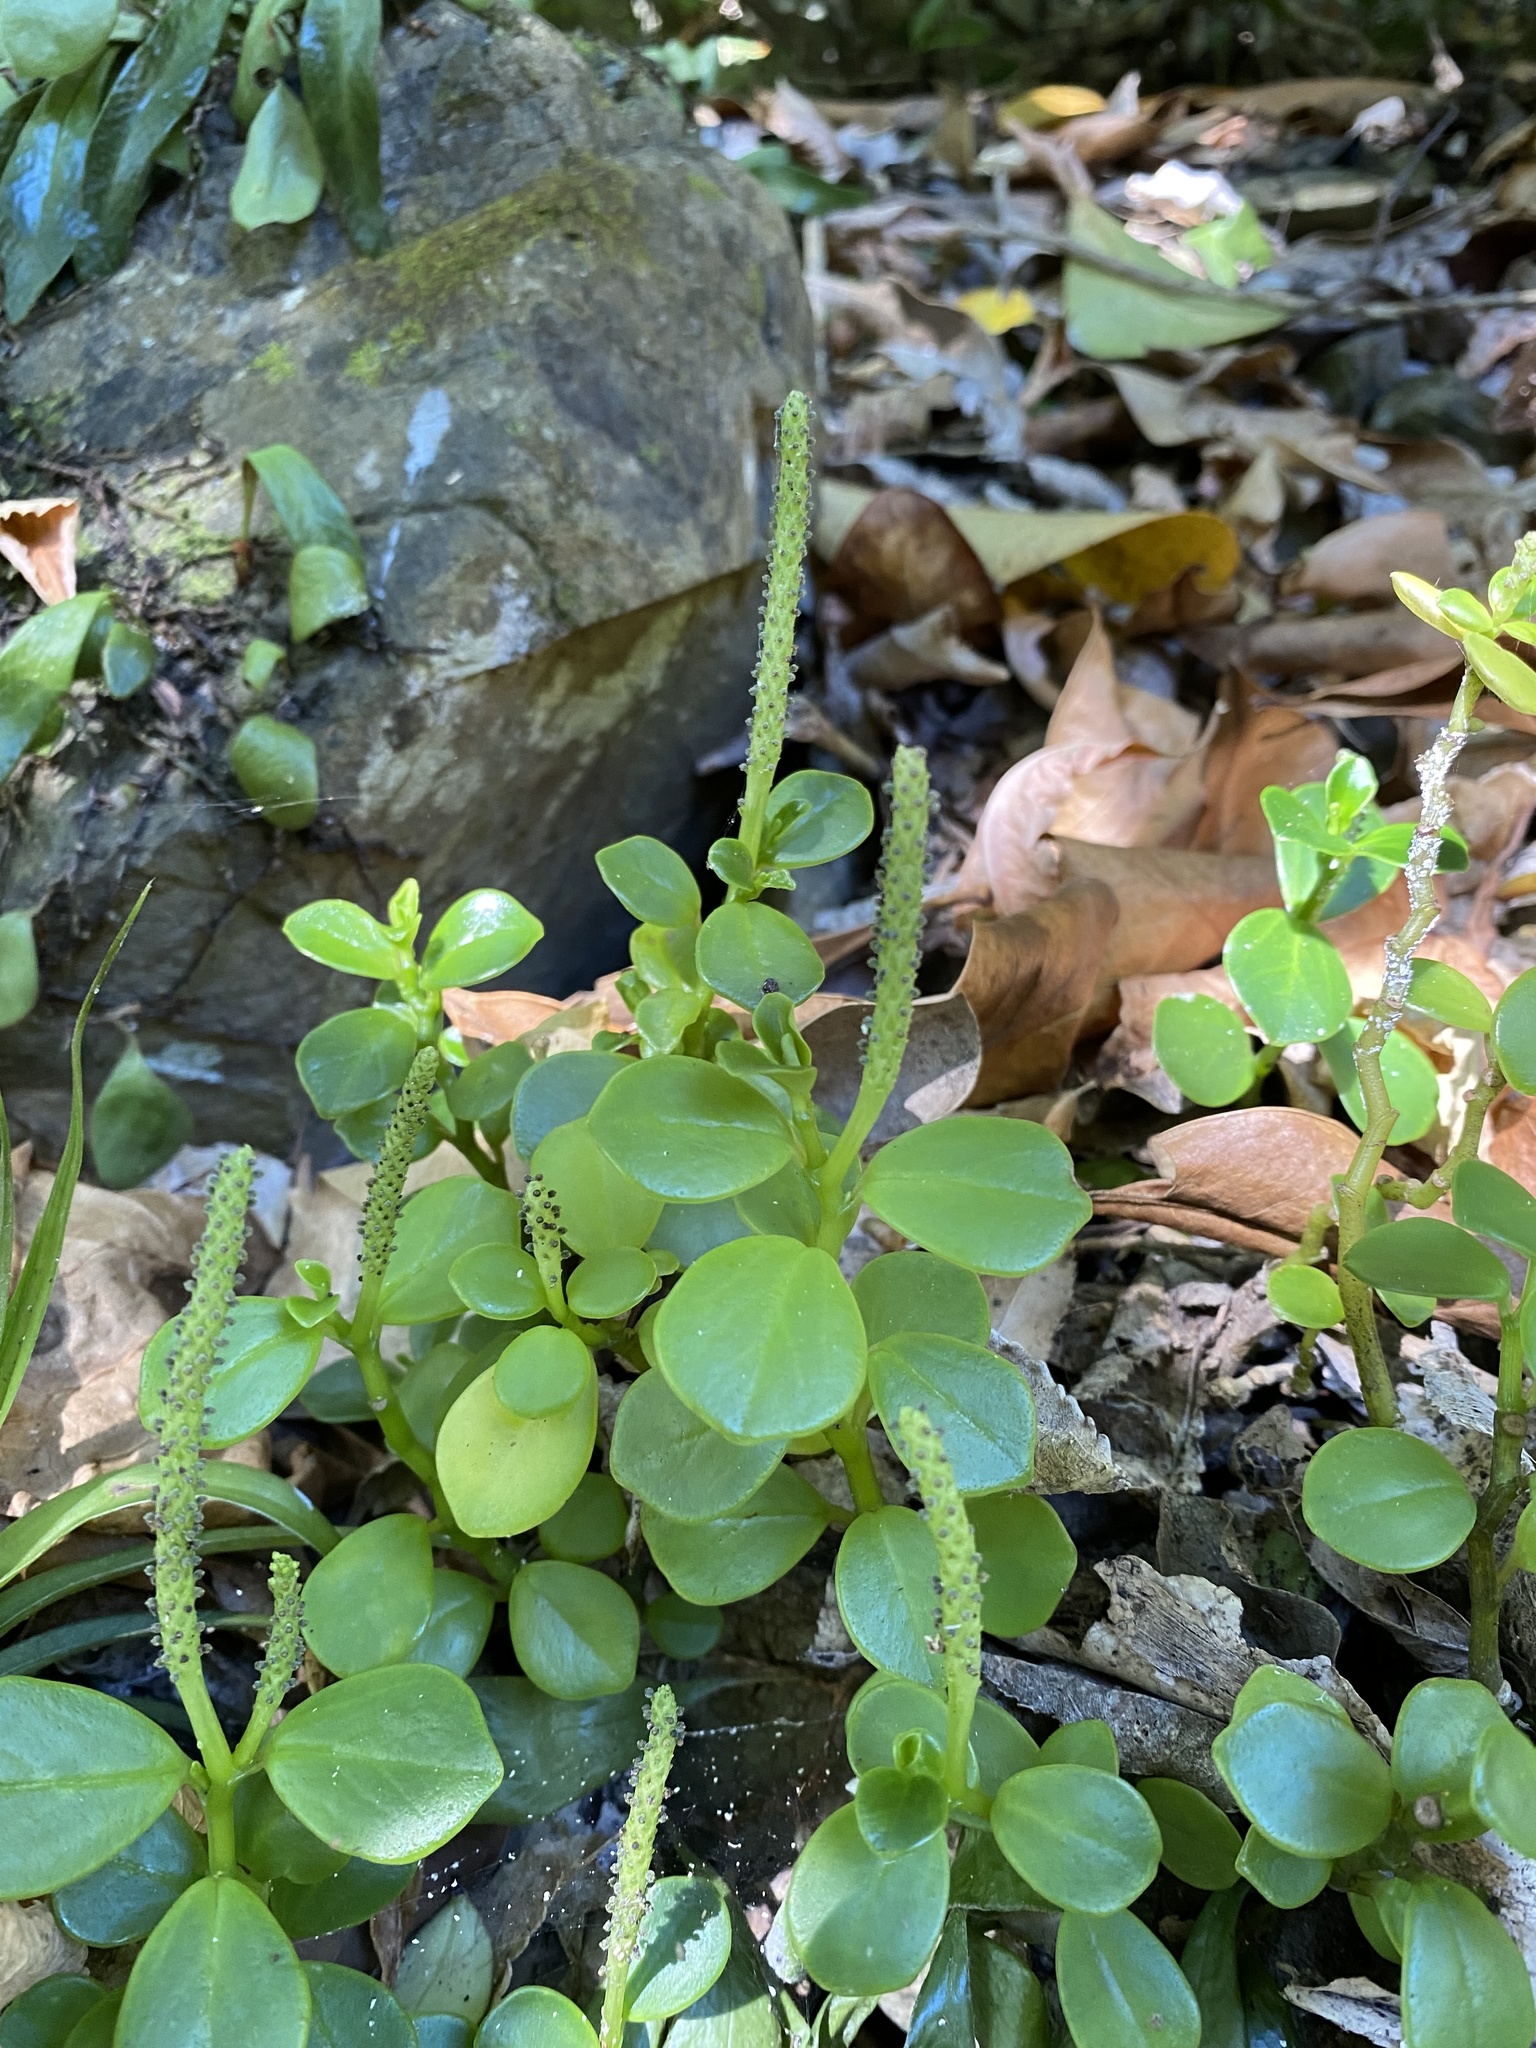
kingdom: Plantae
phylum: Tracheophyta
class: Magnoliopsida
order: Piperales
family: Piperaceae
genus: Peperomia
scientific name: Peperomia urvilleana
